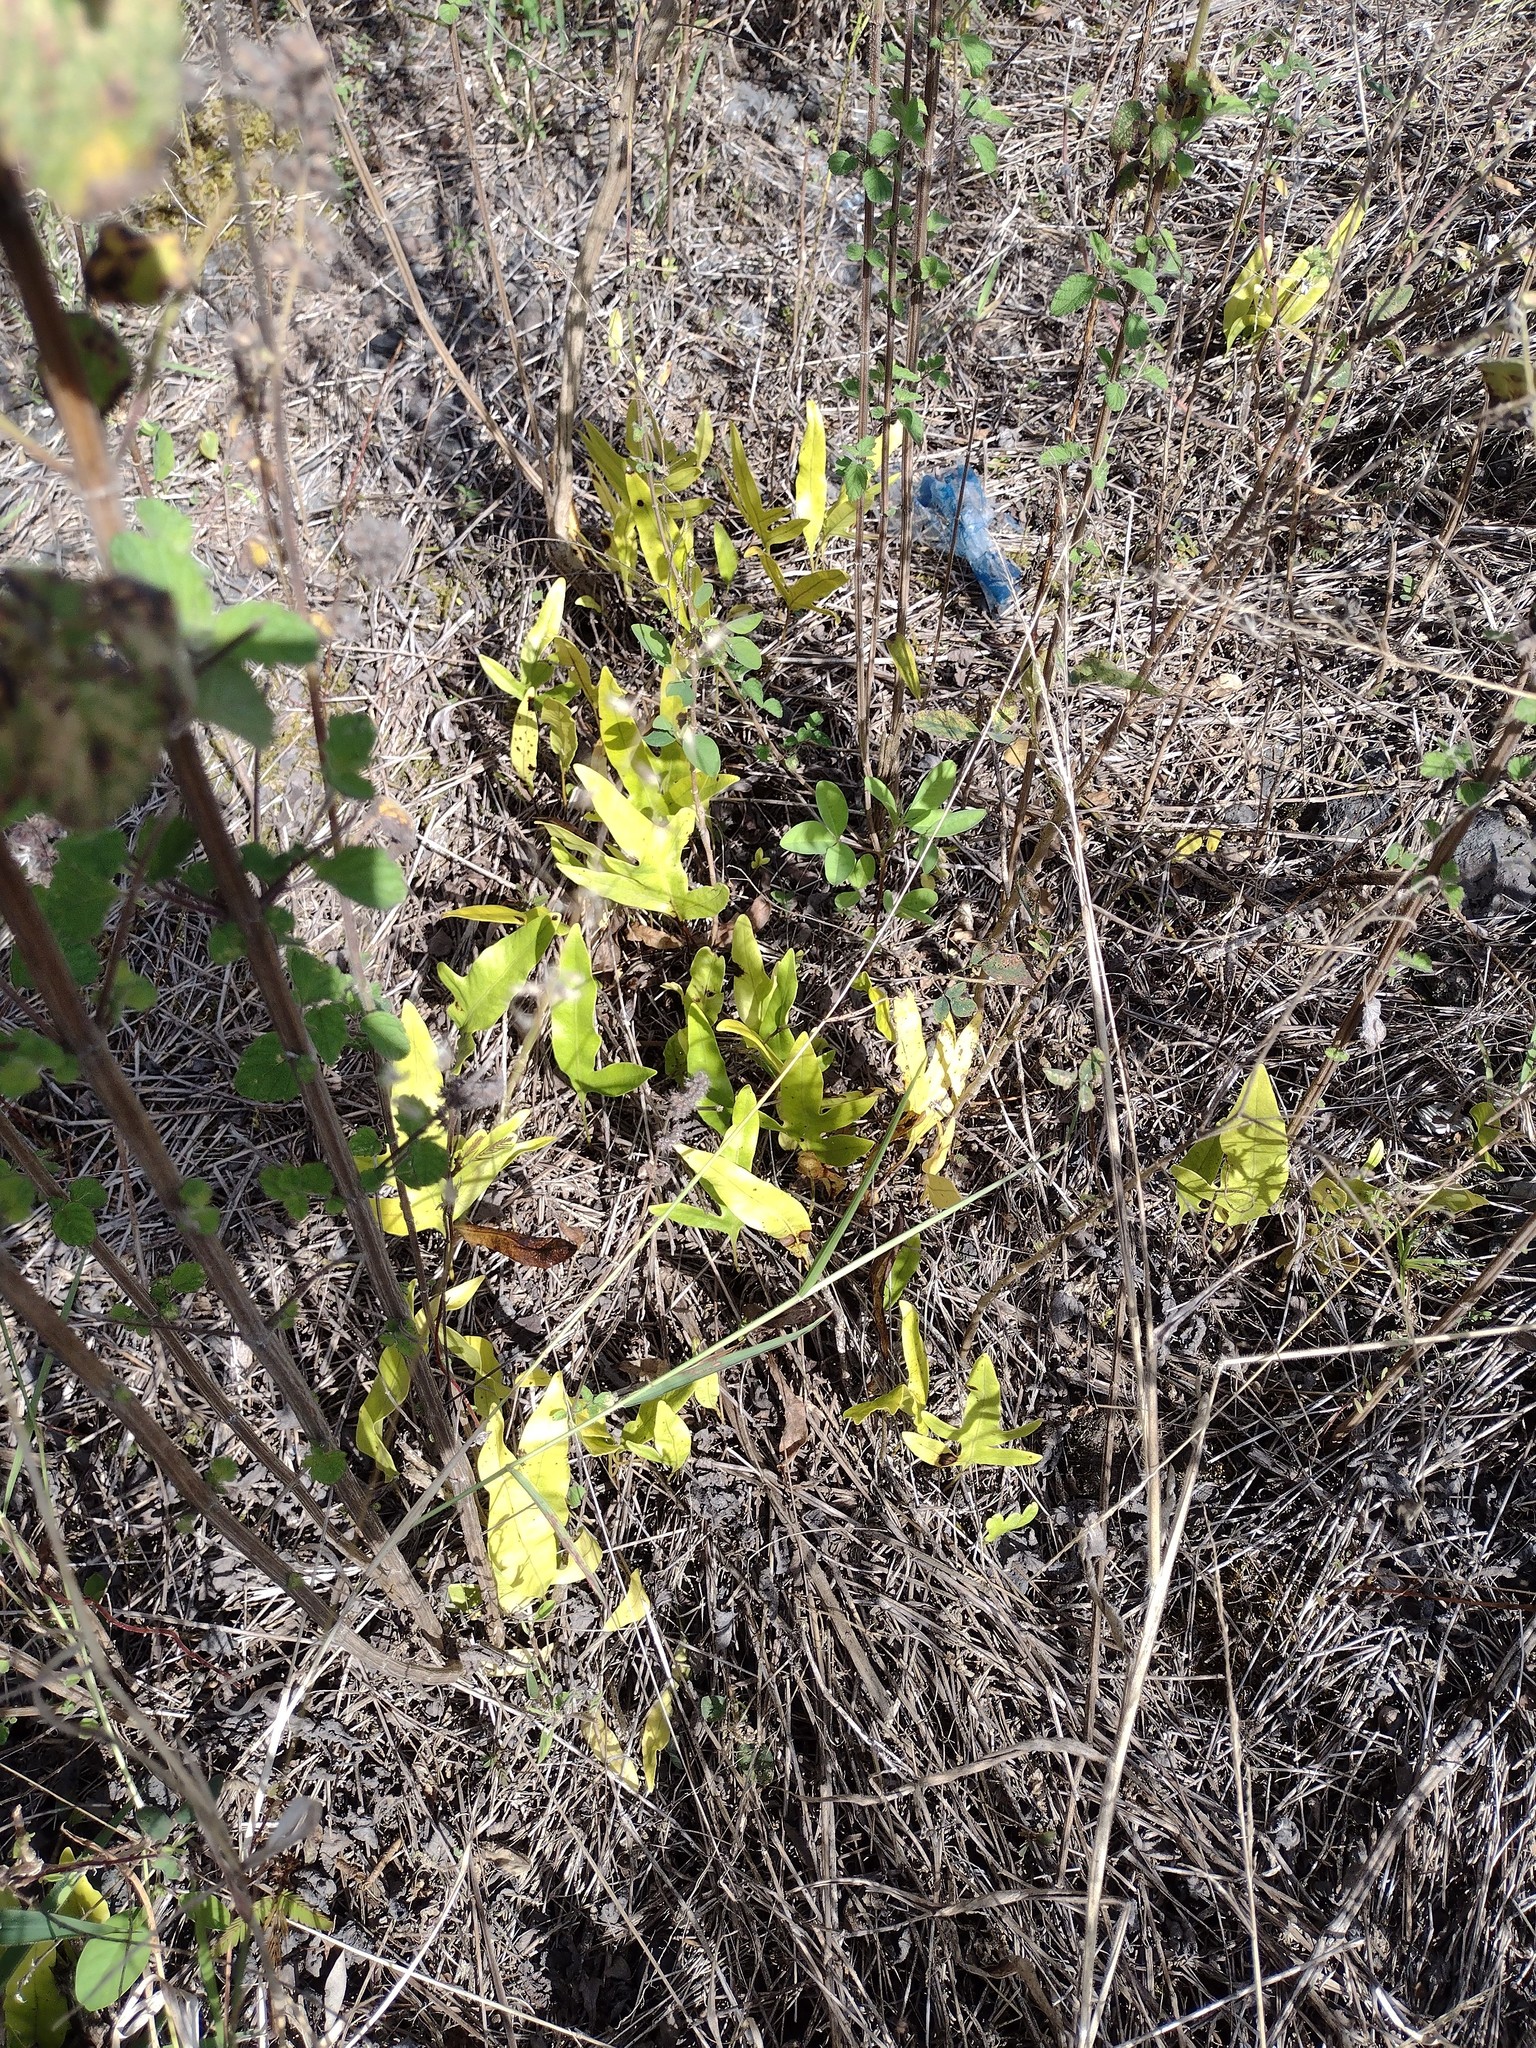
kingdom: Plantae
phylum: Tracheophyta
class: Polypodiopsida
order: Polypodiales
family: Polypodiaceae
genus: Microsorum
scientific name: Microsorum grossum
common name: Musk fern
